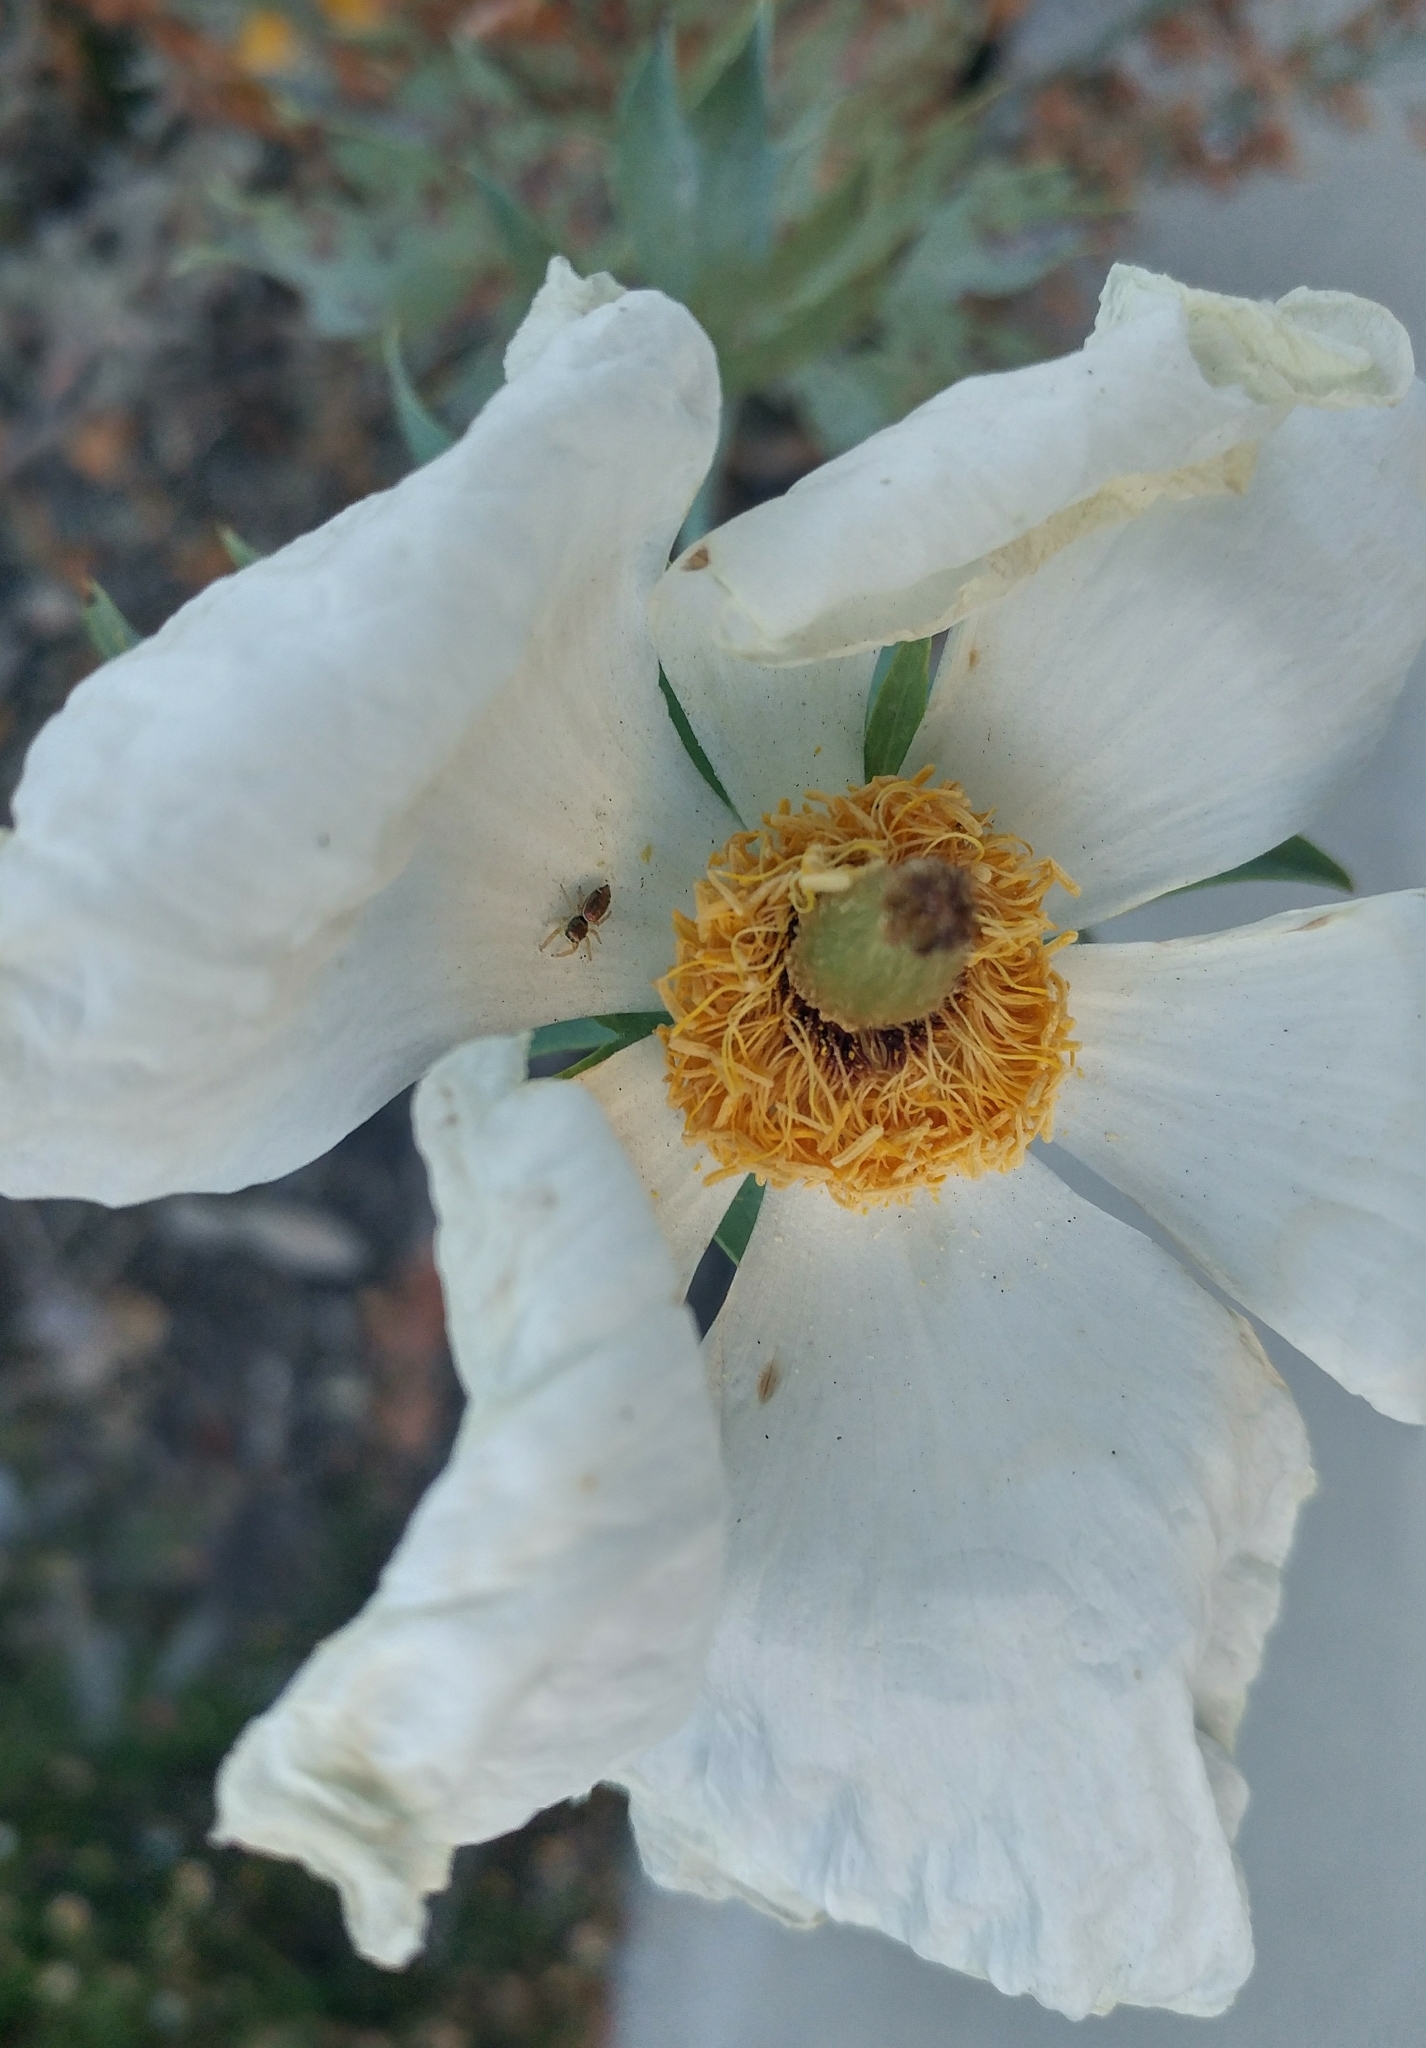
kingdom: Animalia
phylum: Arthropoda
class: Arachnida
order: Araneae
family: Salticidae
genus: Sassacus
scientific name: Sassacus vitis
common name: Jumping spiders
